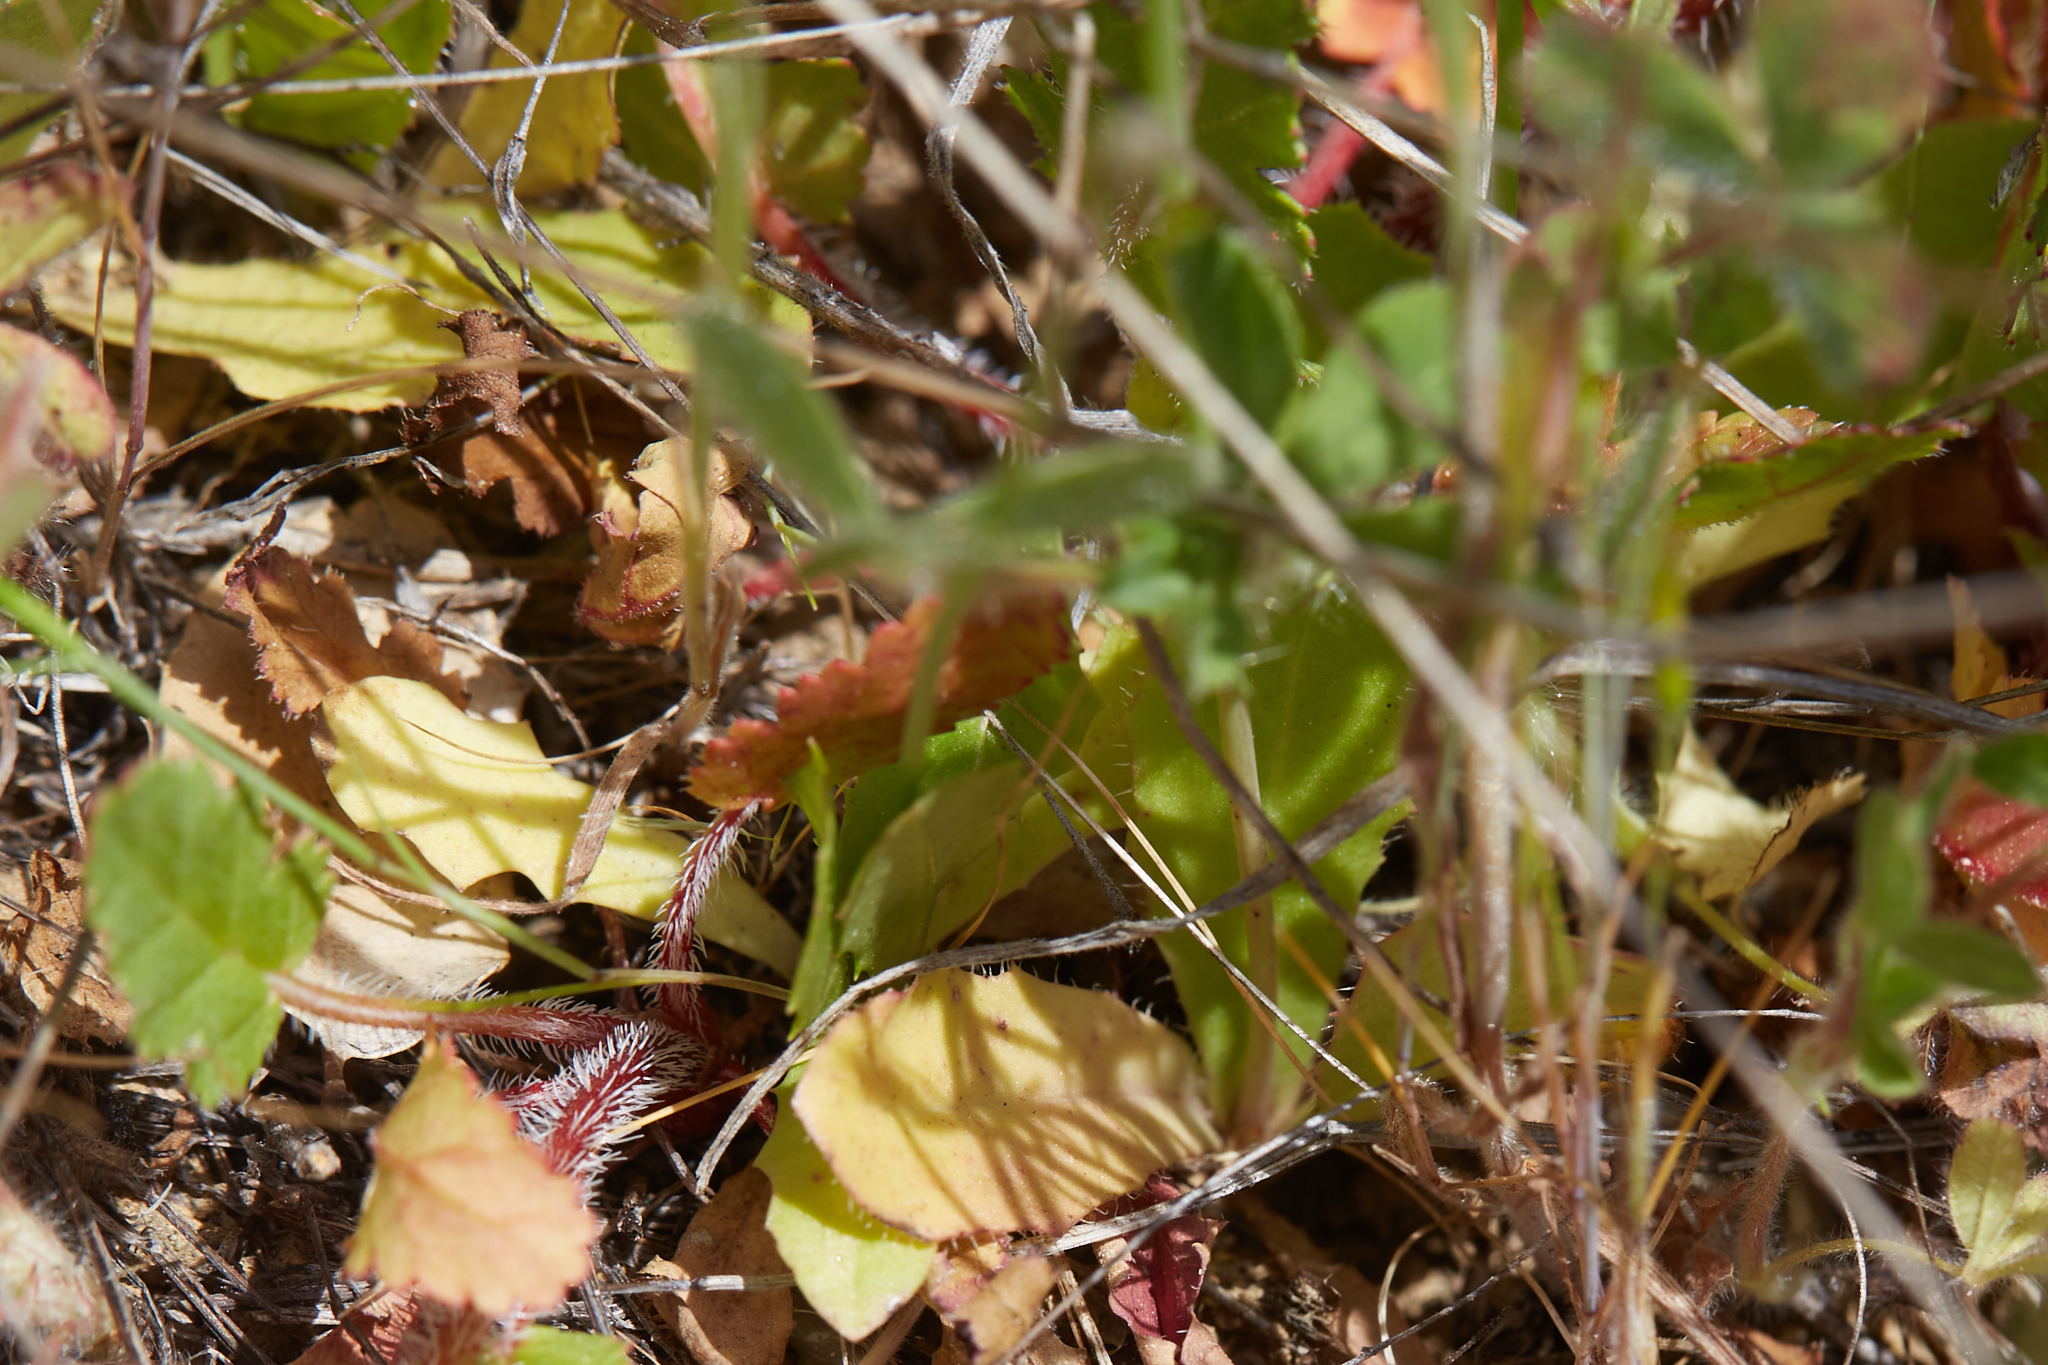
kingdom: Plantae
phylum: Tracheophyta
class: Magnoliopsida
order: Asterales
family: Asteraceae
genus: Hypochaeris
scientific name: Hypochaeris glabra
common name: Smooth catsear
